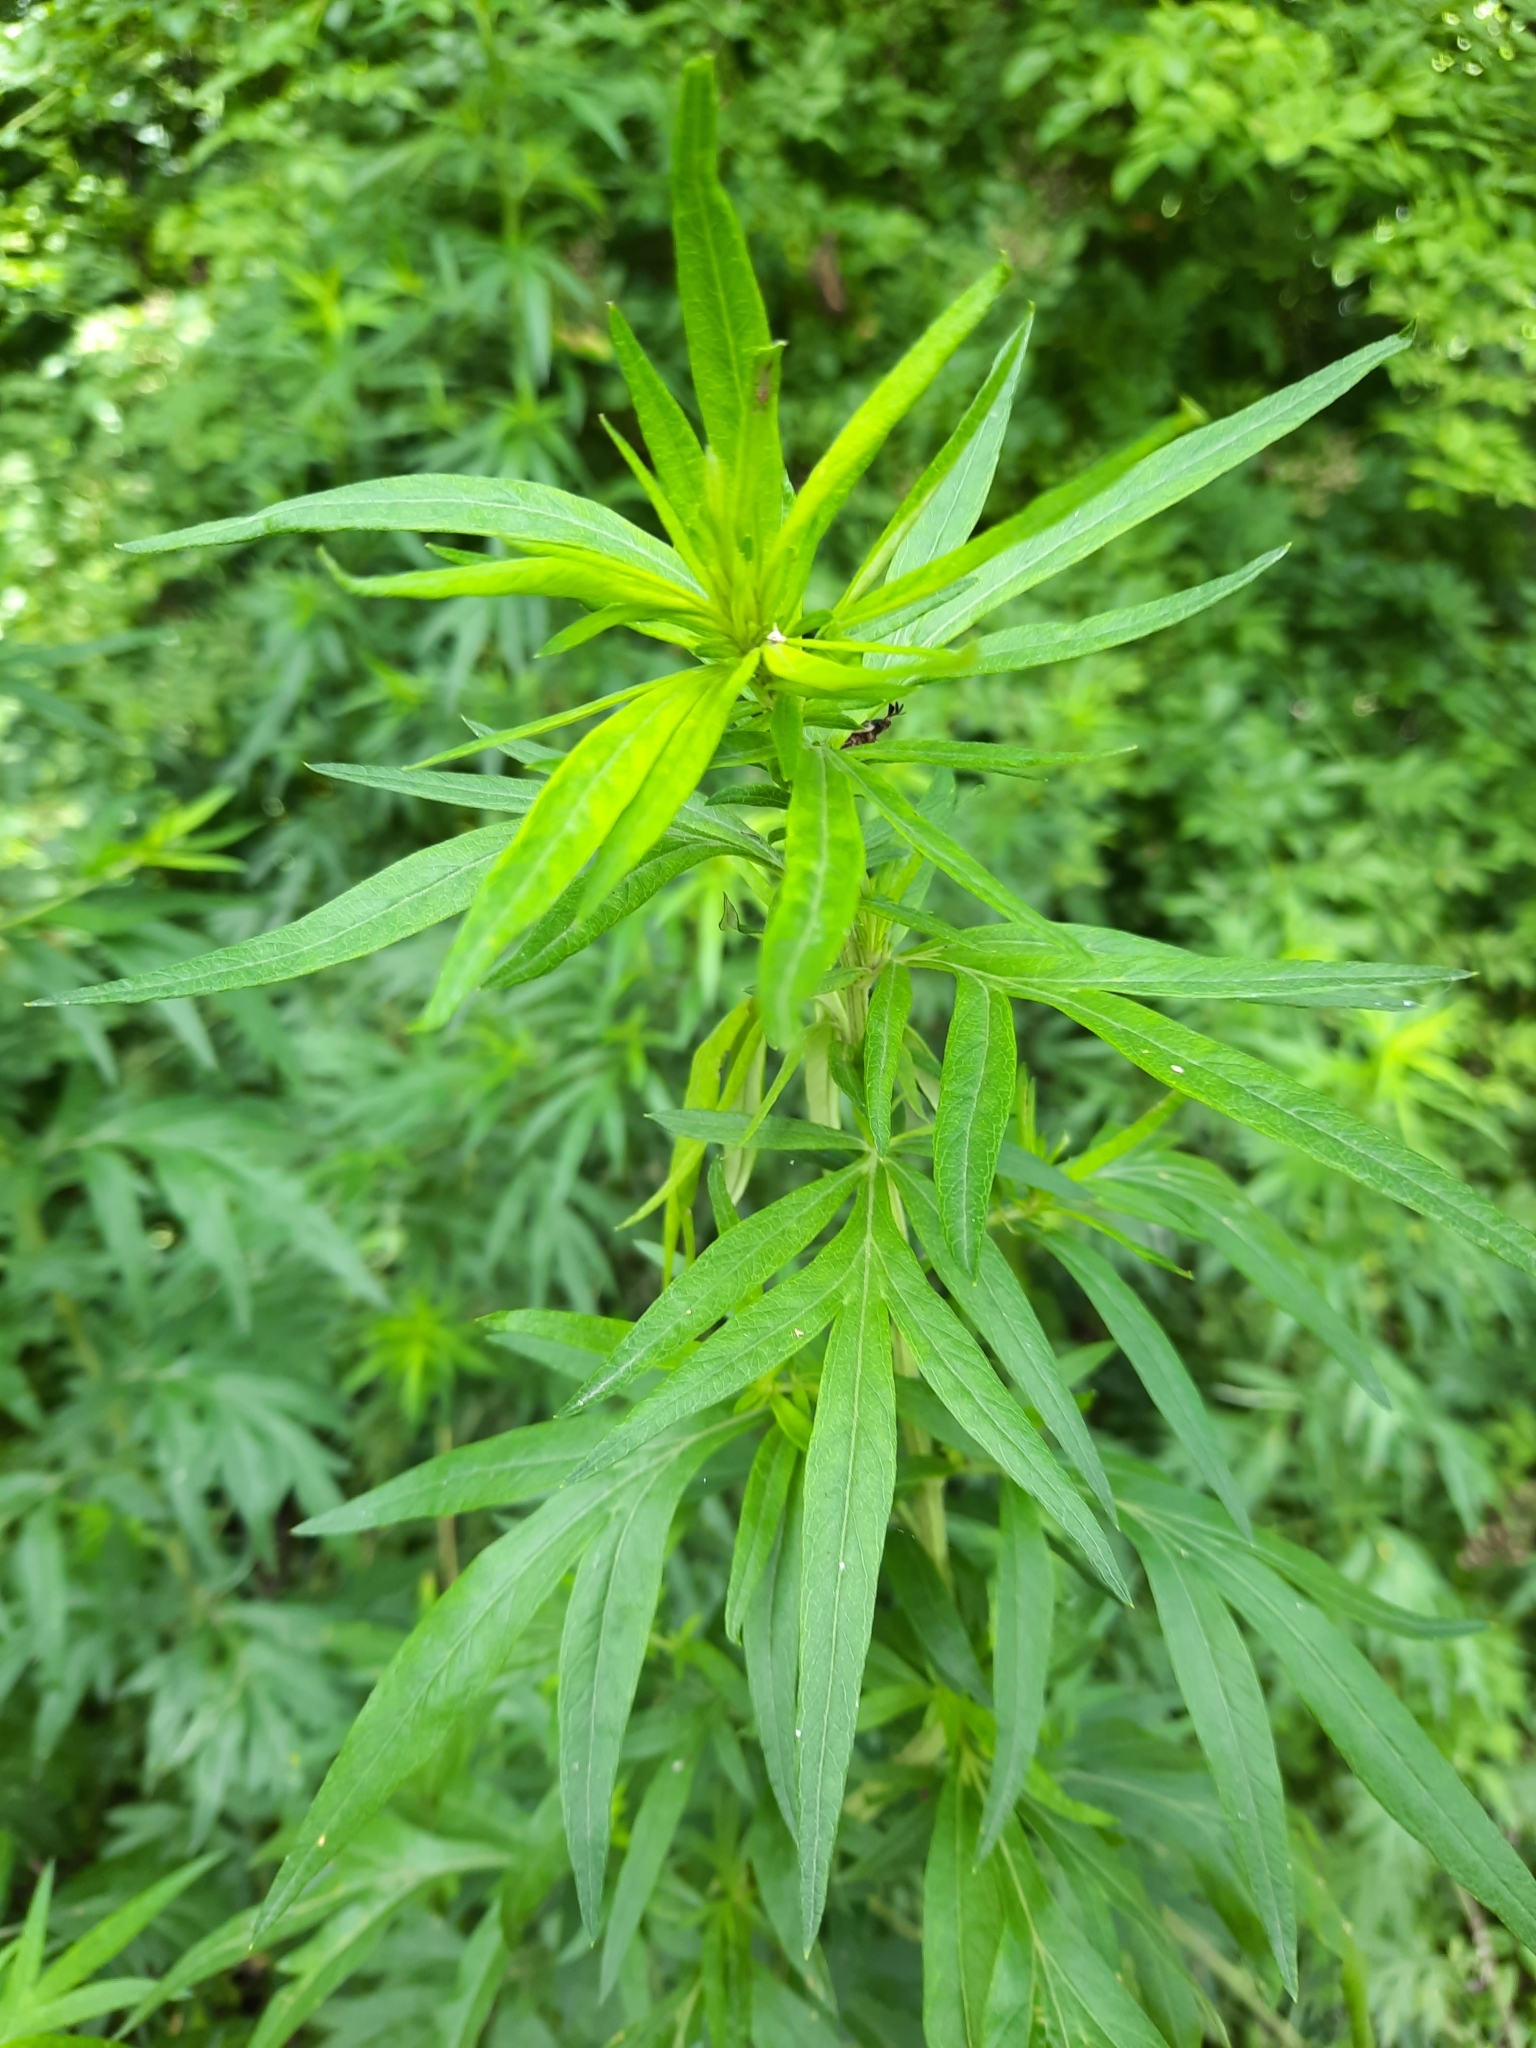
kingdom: Plantae
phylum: Tracheophyta
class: Magnoliopsida
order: Asterales
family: Asteraceae
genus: Artemisia
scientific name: Artemisia vulgaris
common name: Mugwort
